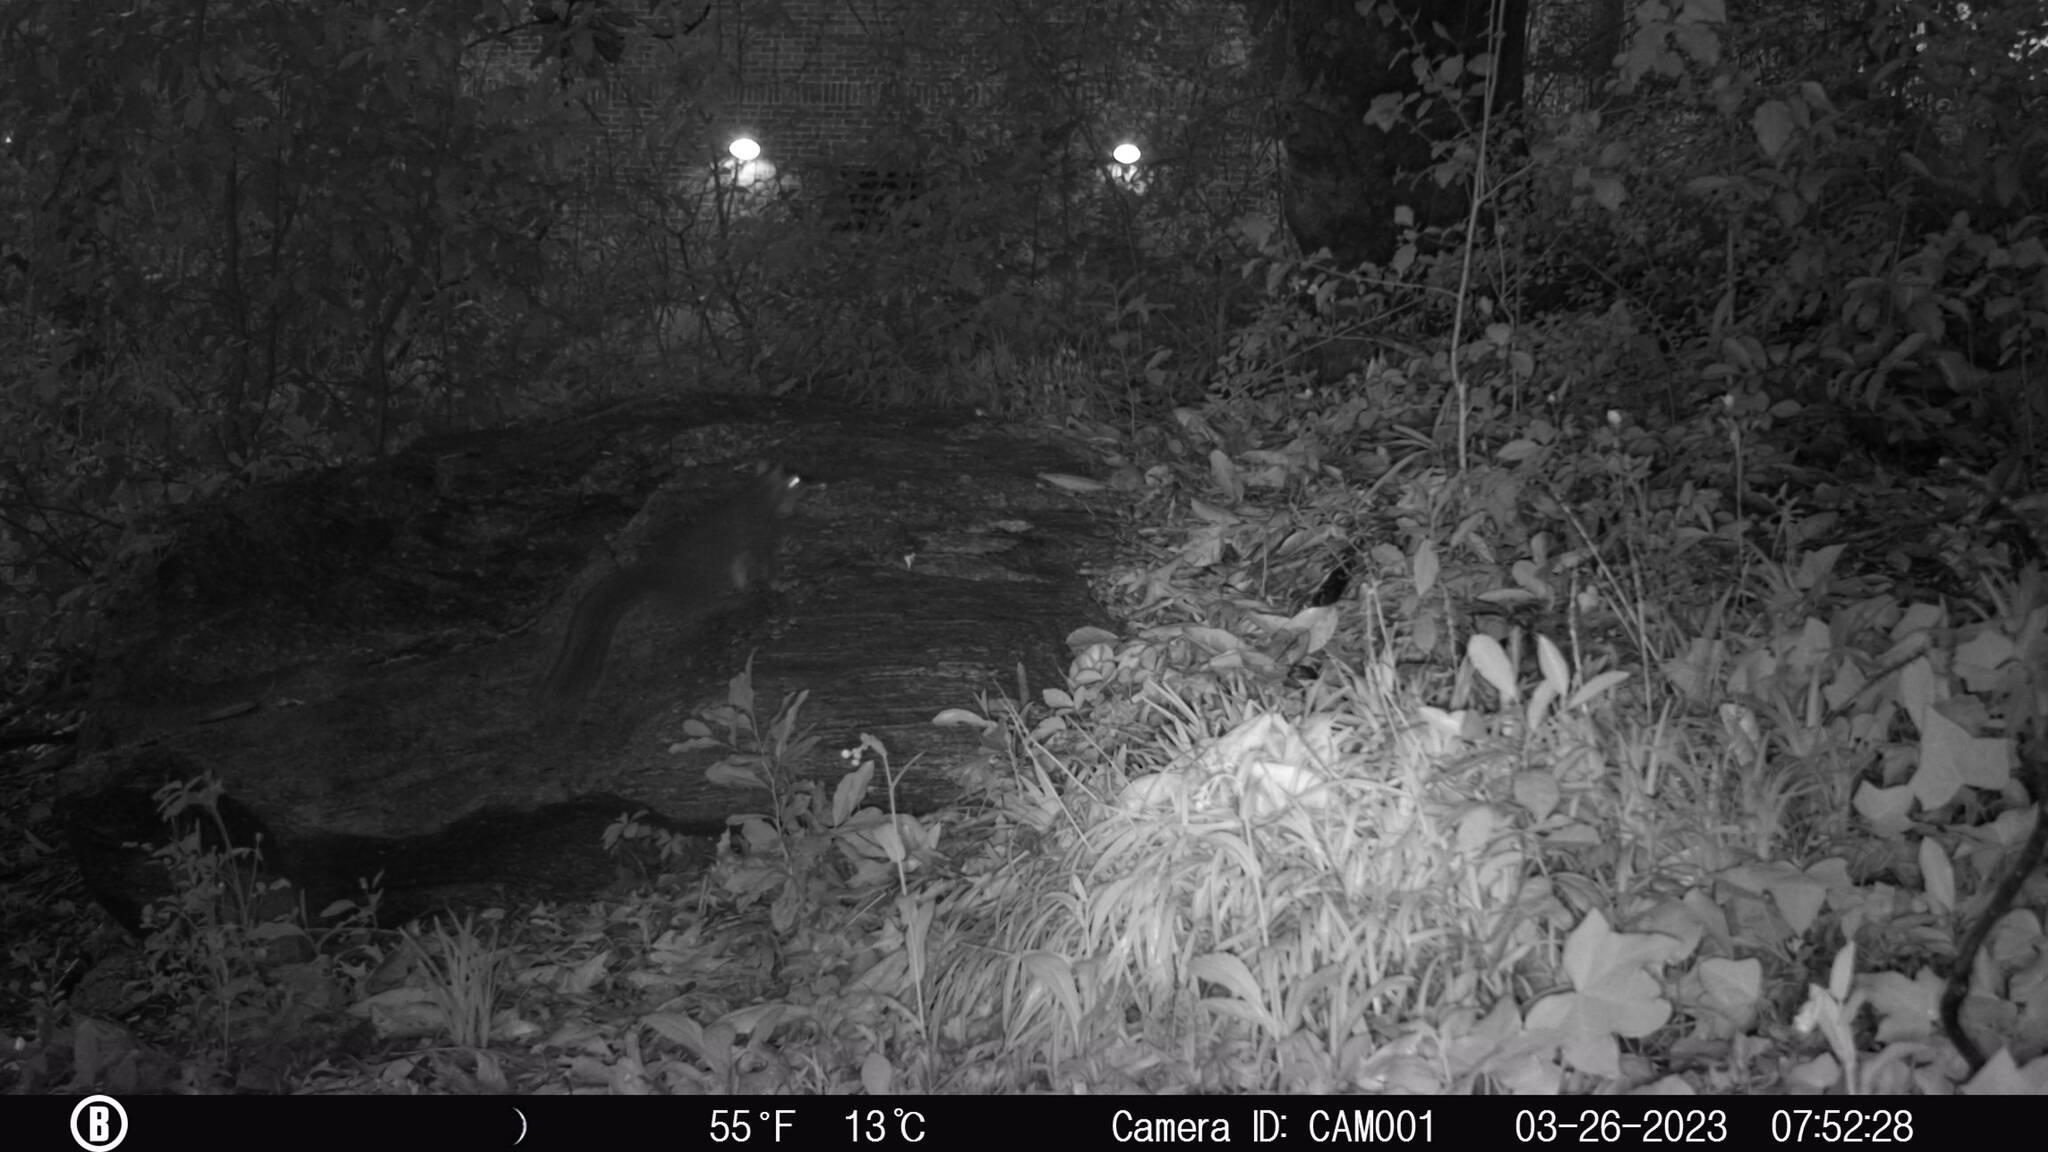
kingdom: Animalia
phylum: Chordata
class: Mammalia
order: Rodentia
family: Sciuridae
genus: Sciurus
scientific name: Sciurus carolinensis
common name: Eastern gray squirrel
